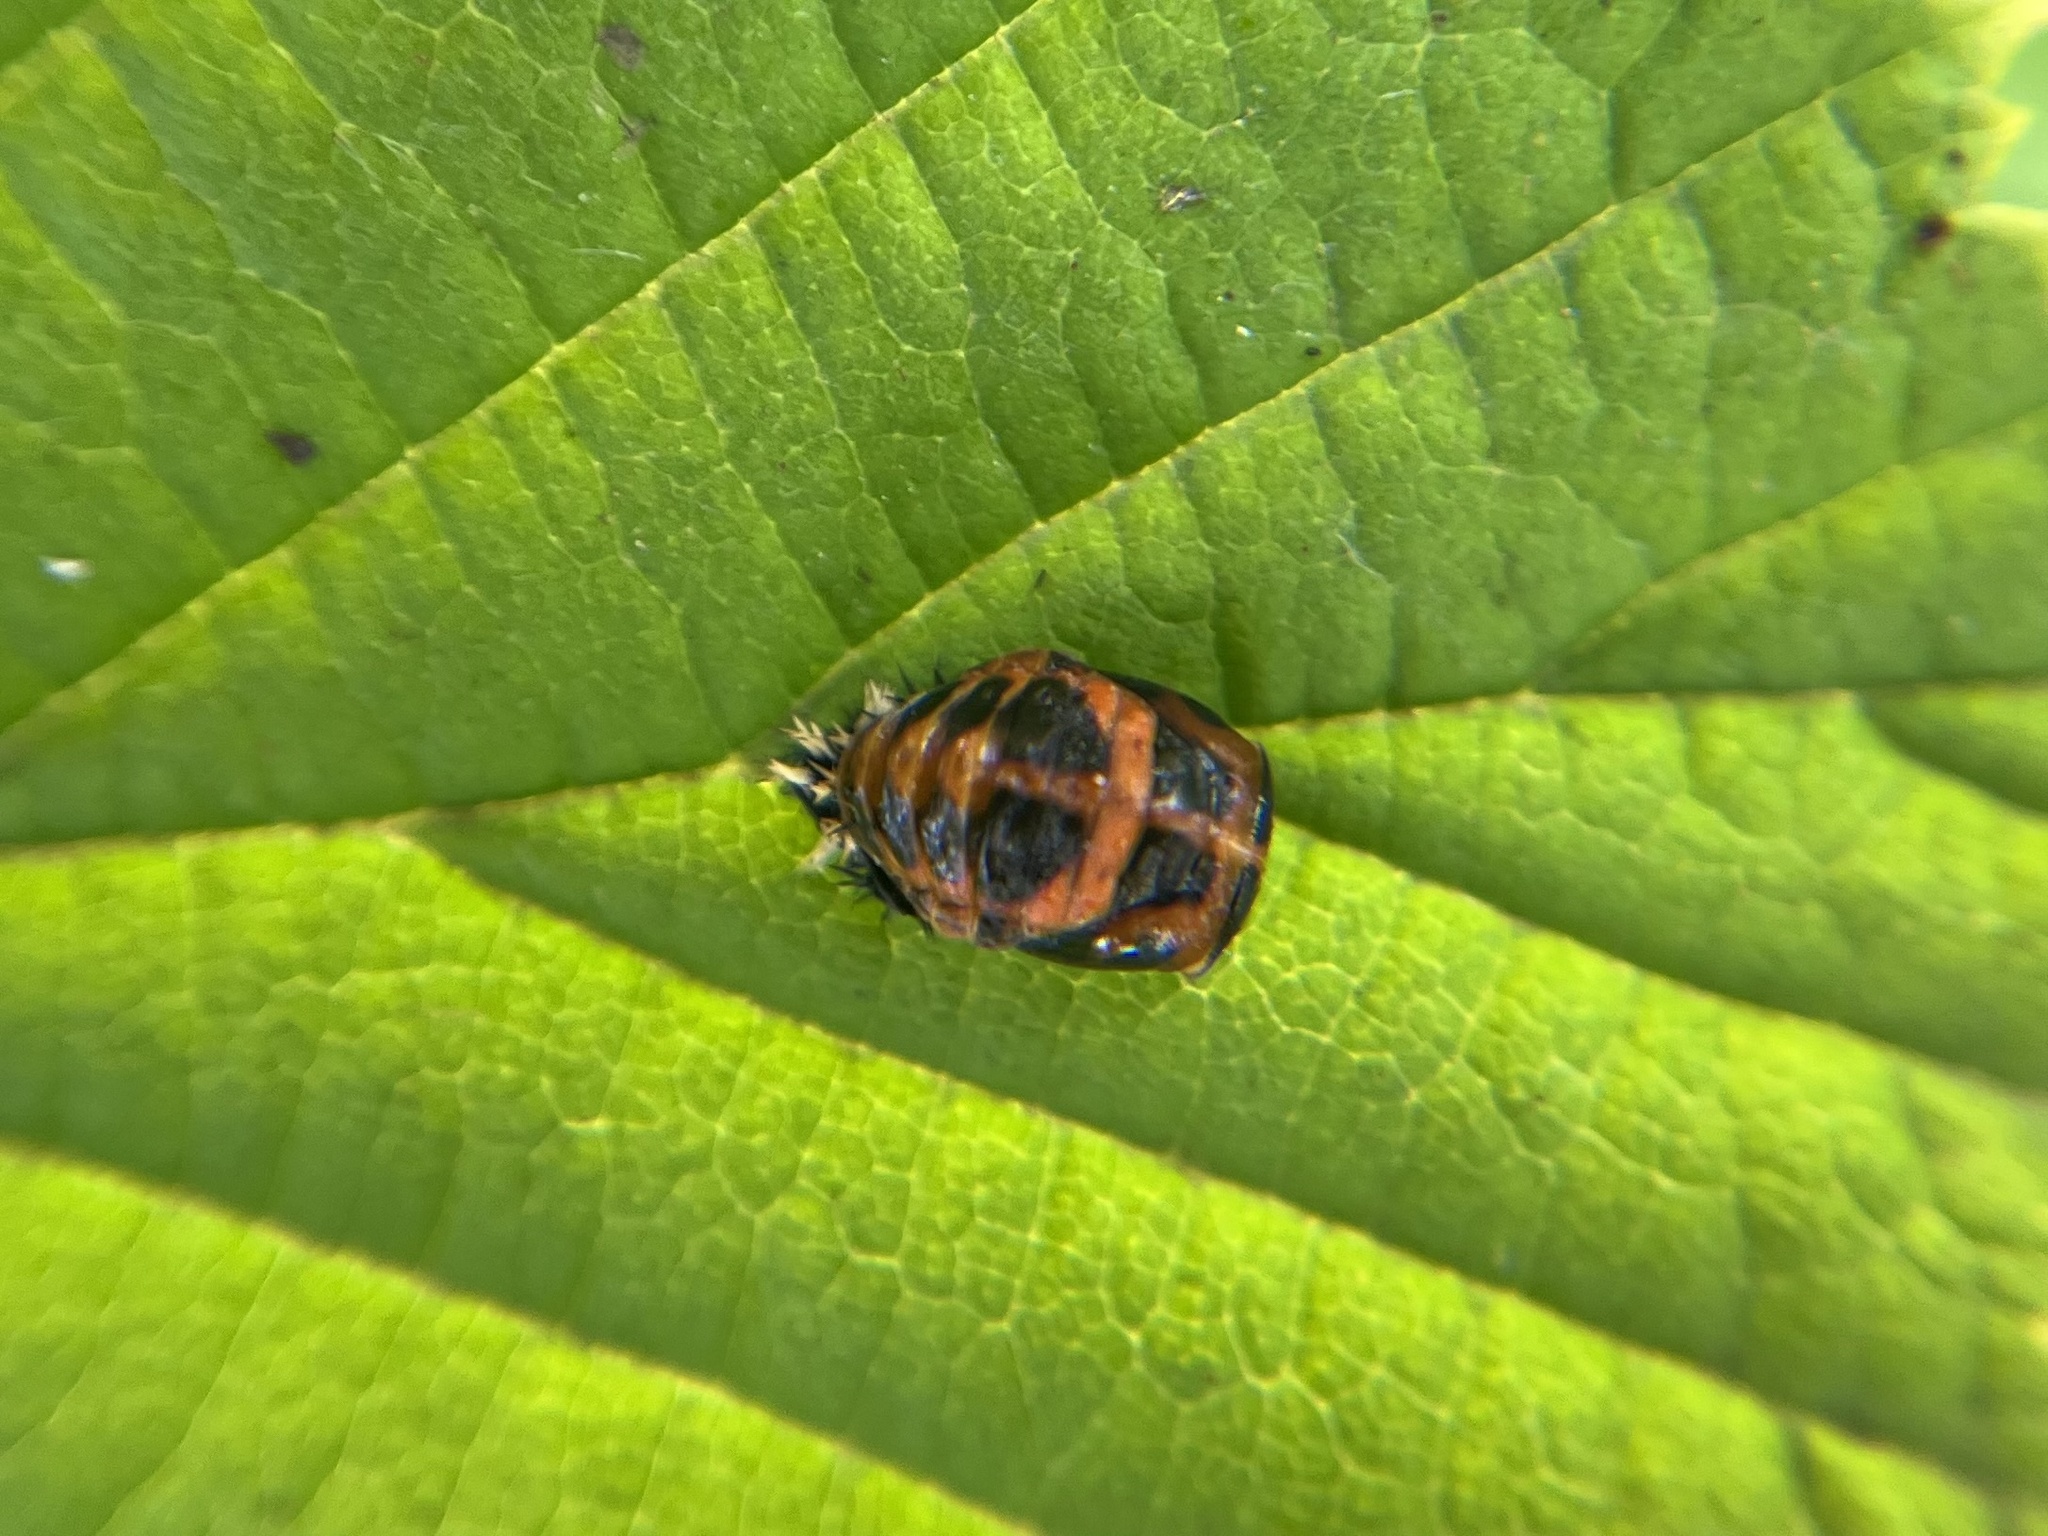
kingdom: Animalia
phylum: Arthropoda
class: Insecta
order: Coleoptera
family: Coccinellidae
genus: Harmonia
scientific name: Harmonia axyridis
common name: Harlequin ladybird
